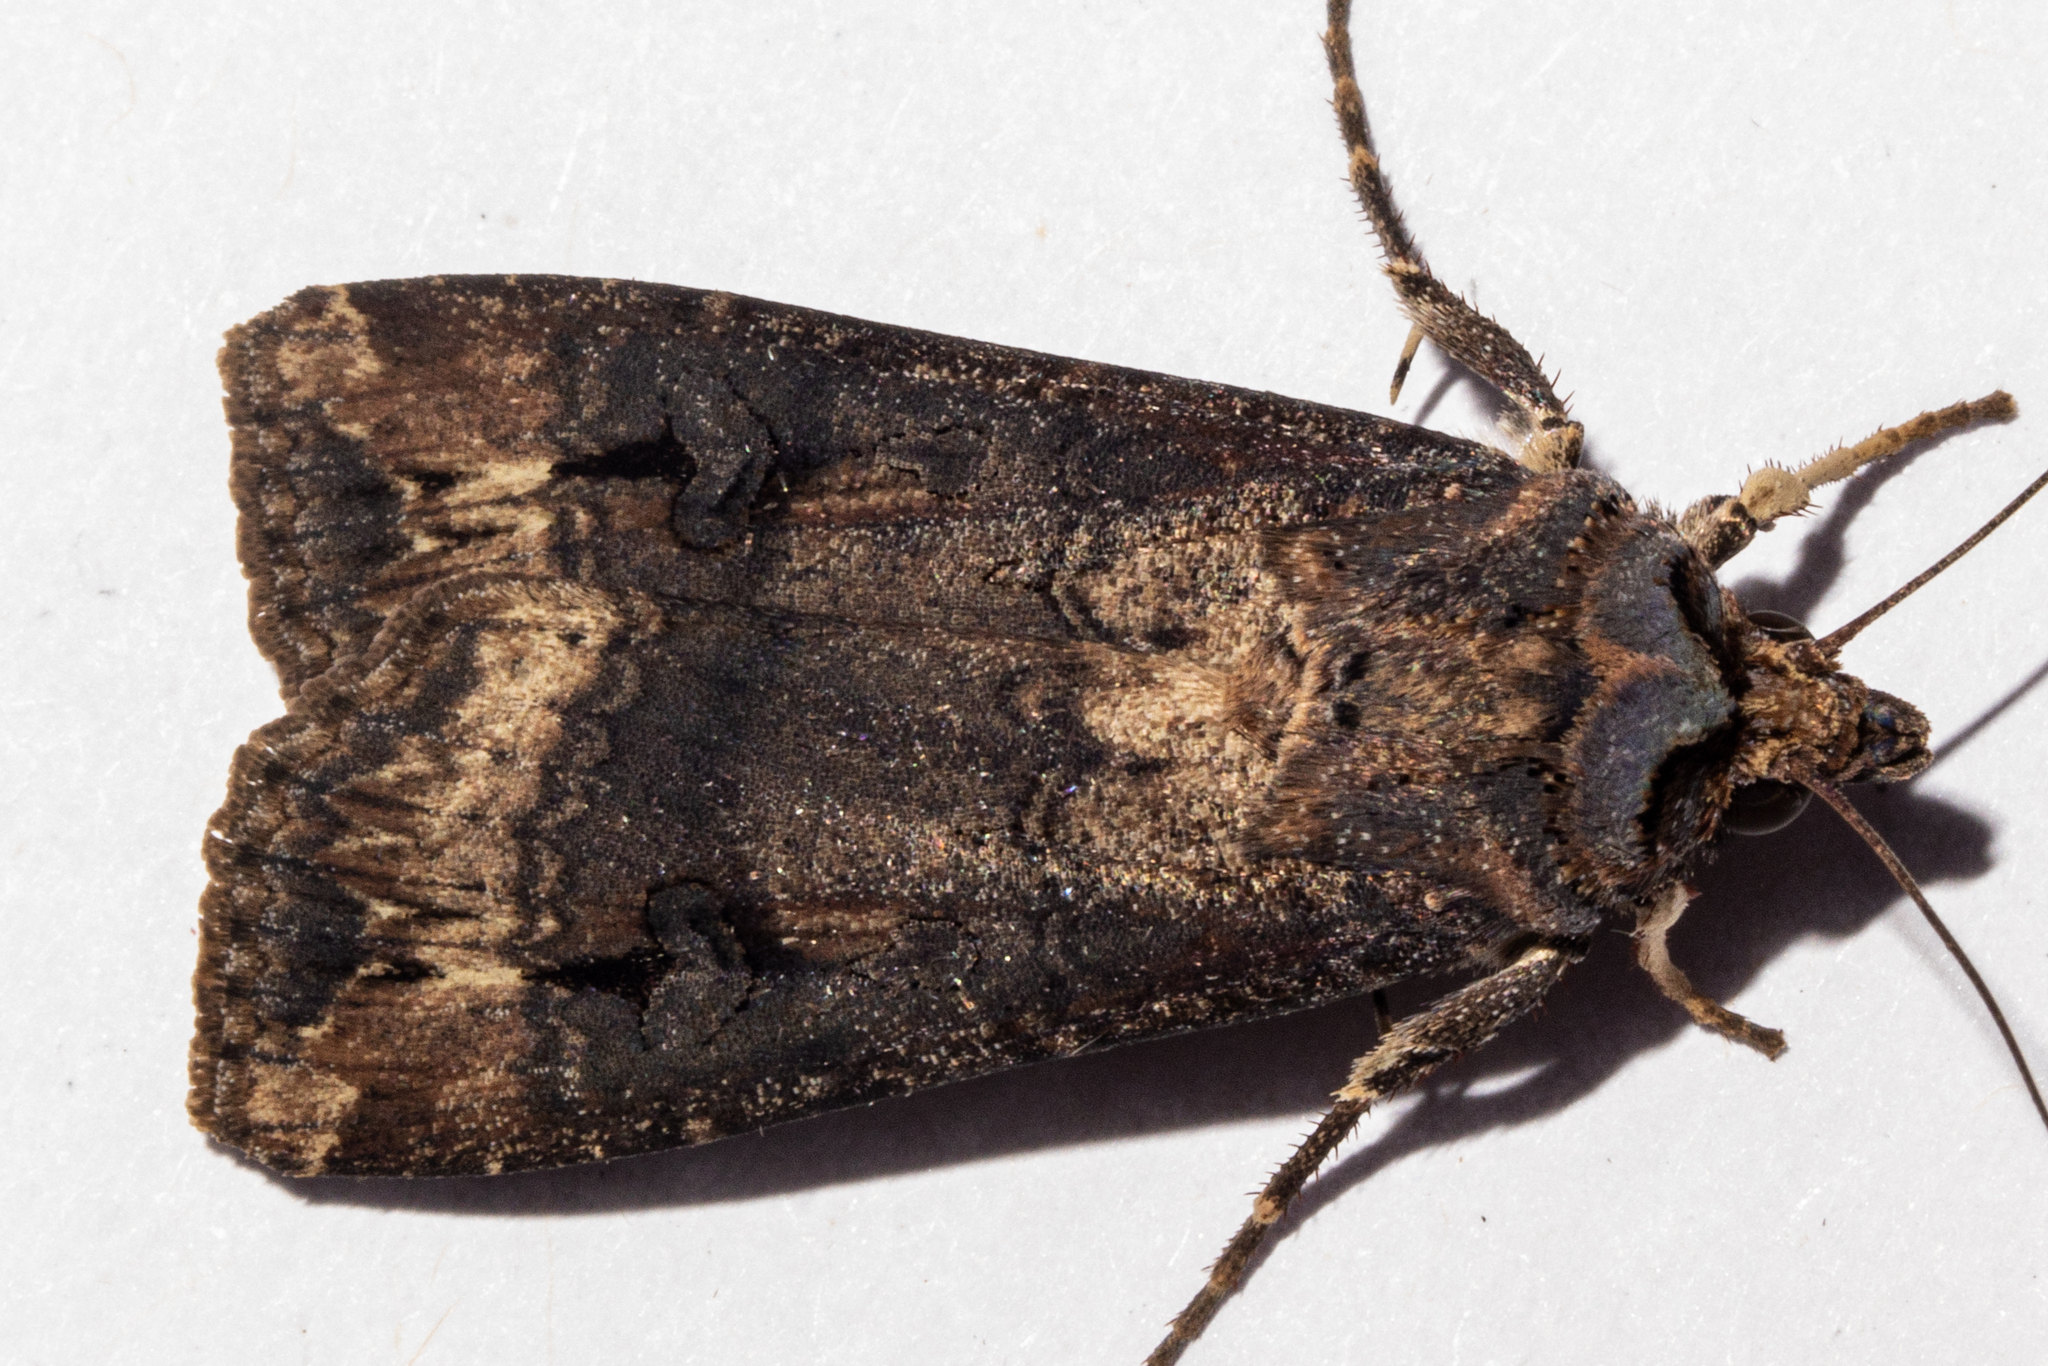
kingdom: Animalia
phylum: Arthropoda
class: Insecta
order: Lepidoptera
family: Noctuidae
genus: Agrotis
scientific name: Agrotis ipsilon
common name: Dark sword-grass
